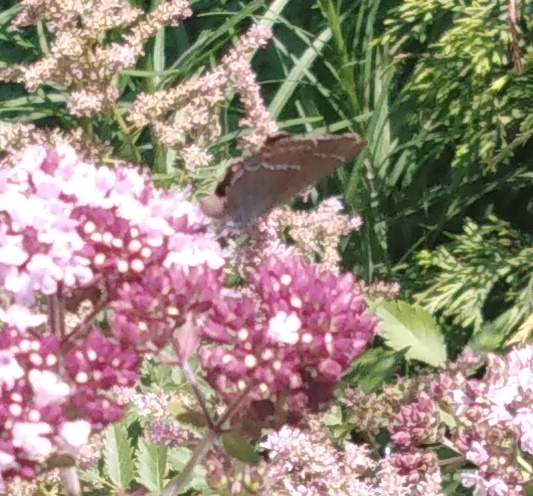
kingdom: Animalia
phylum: Arthropoda
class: Insecta
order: Lepidoptera
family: Lycaenidae
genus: Tuttiola
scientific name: Tuttiola spini
